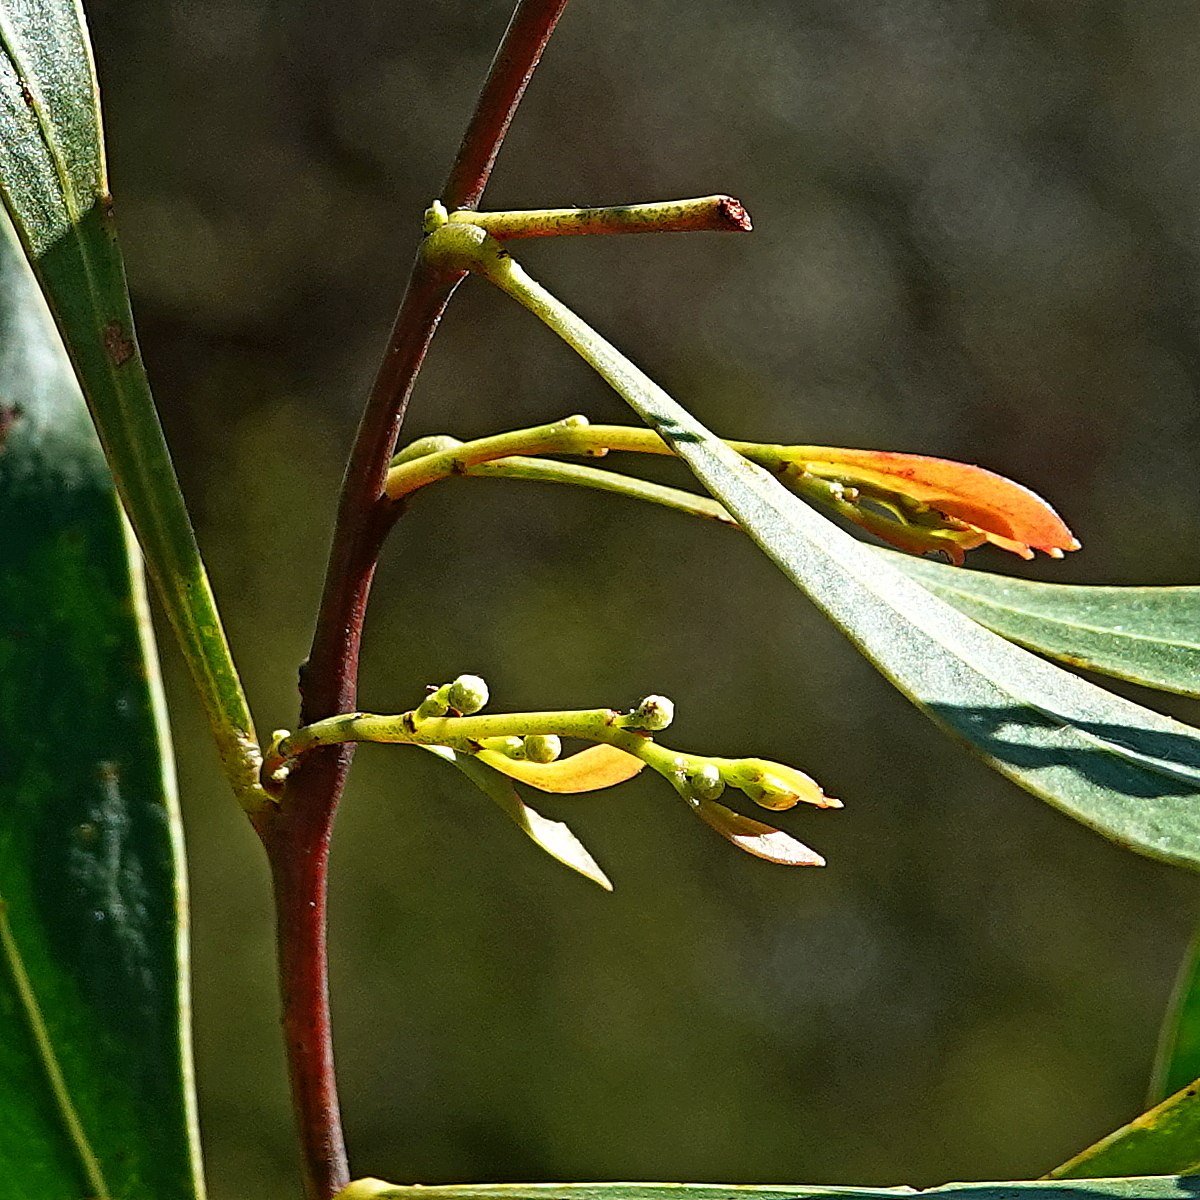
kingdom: Plantae
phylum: Tracheophyta
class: Magnoliopsida
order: Fabales
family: Fabaceae
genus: Acacia
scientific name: Acacia penninervis
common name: Hickory wattle
